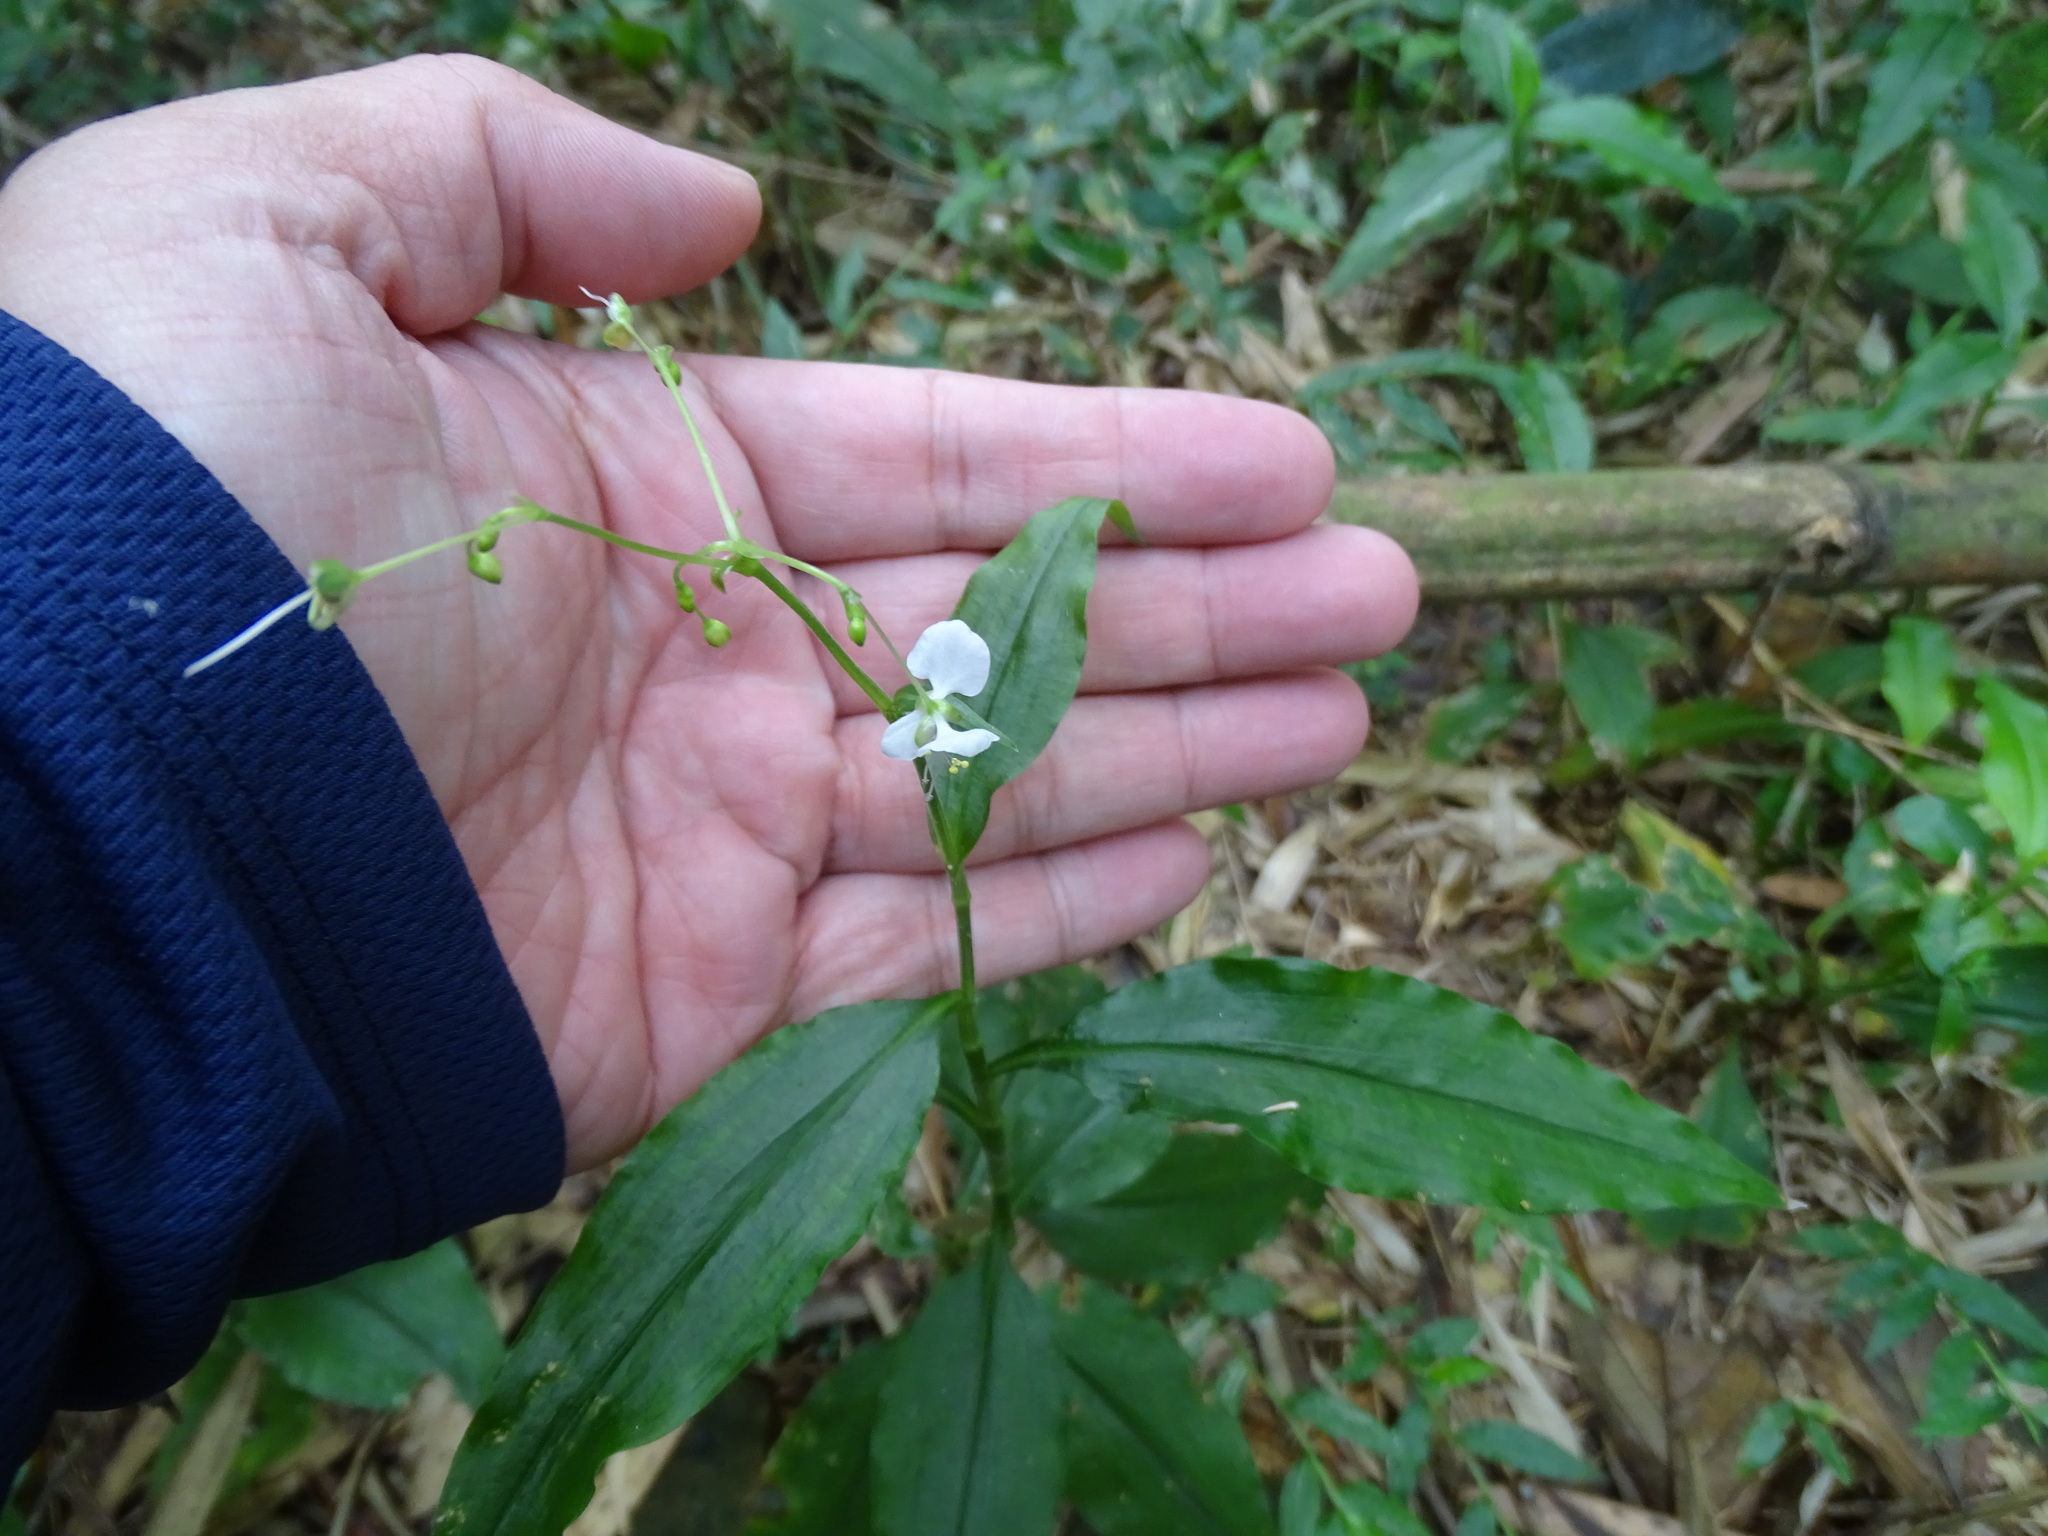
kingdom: Plantae
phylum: Tracheophyta
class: Liliopsida
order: Commelinales
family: Commelinaceae
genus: Rhopalephora
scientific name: Rhopalephora scaberrima
